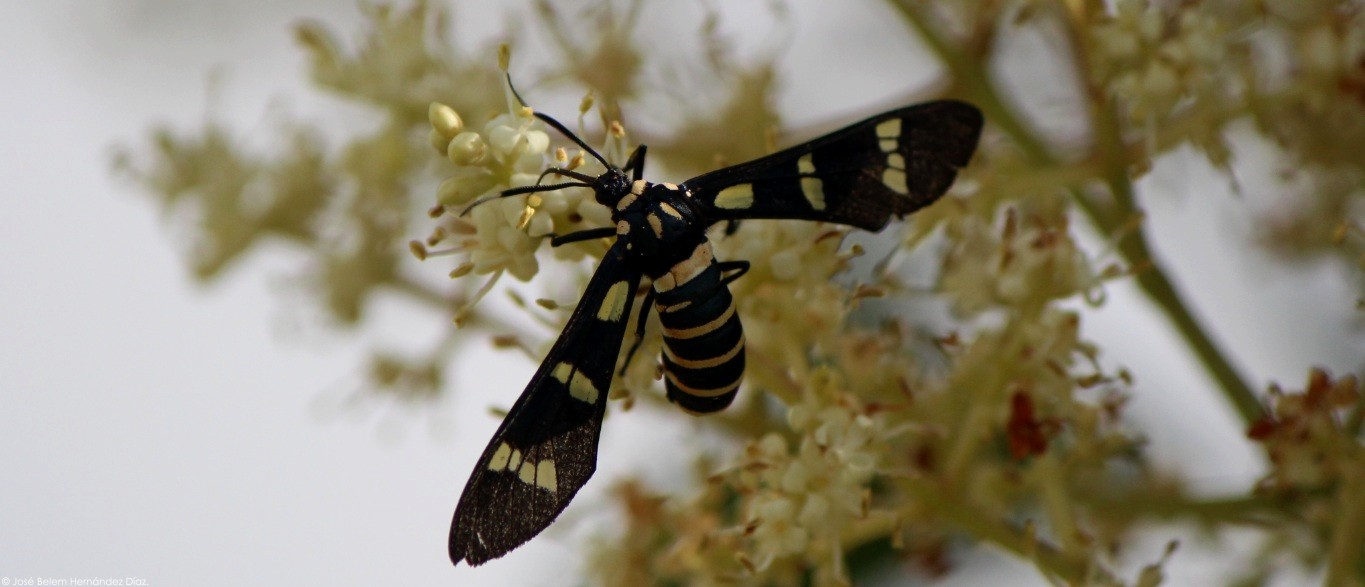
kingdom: Animalia
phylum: Arthropoda
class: Insecta
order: Lepidoptera
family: Erebidae
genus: Syntomeida
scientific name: Syntomeida melanthus
